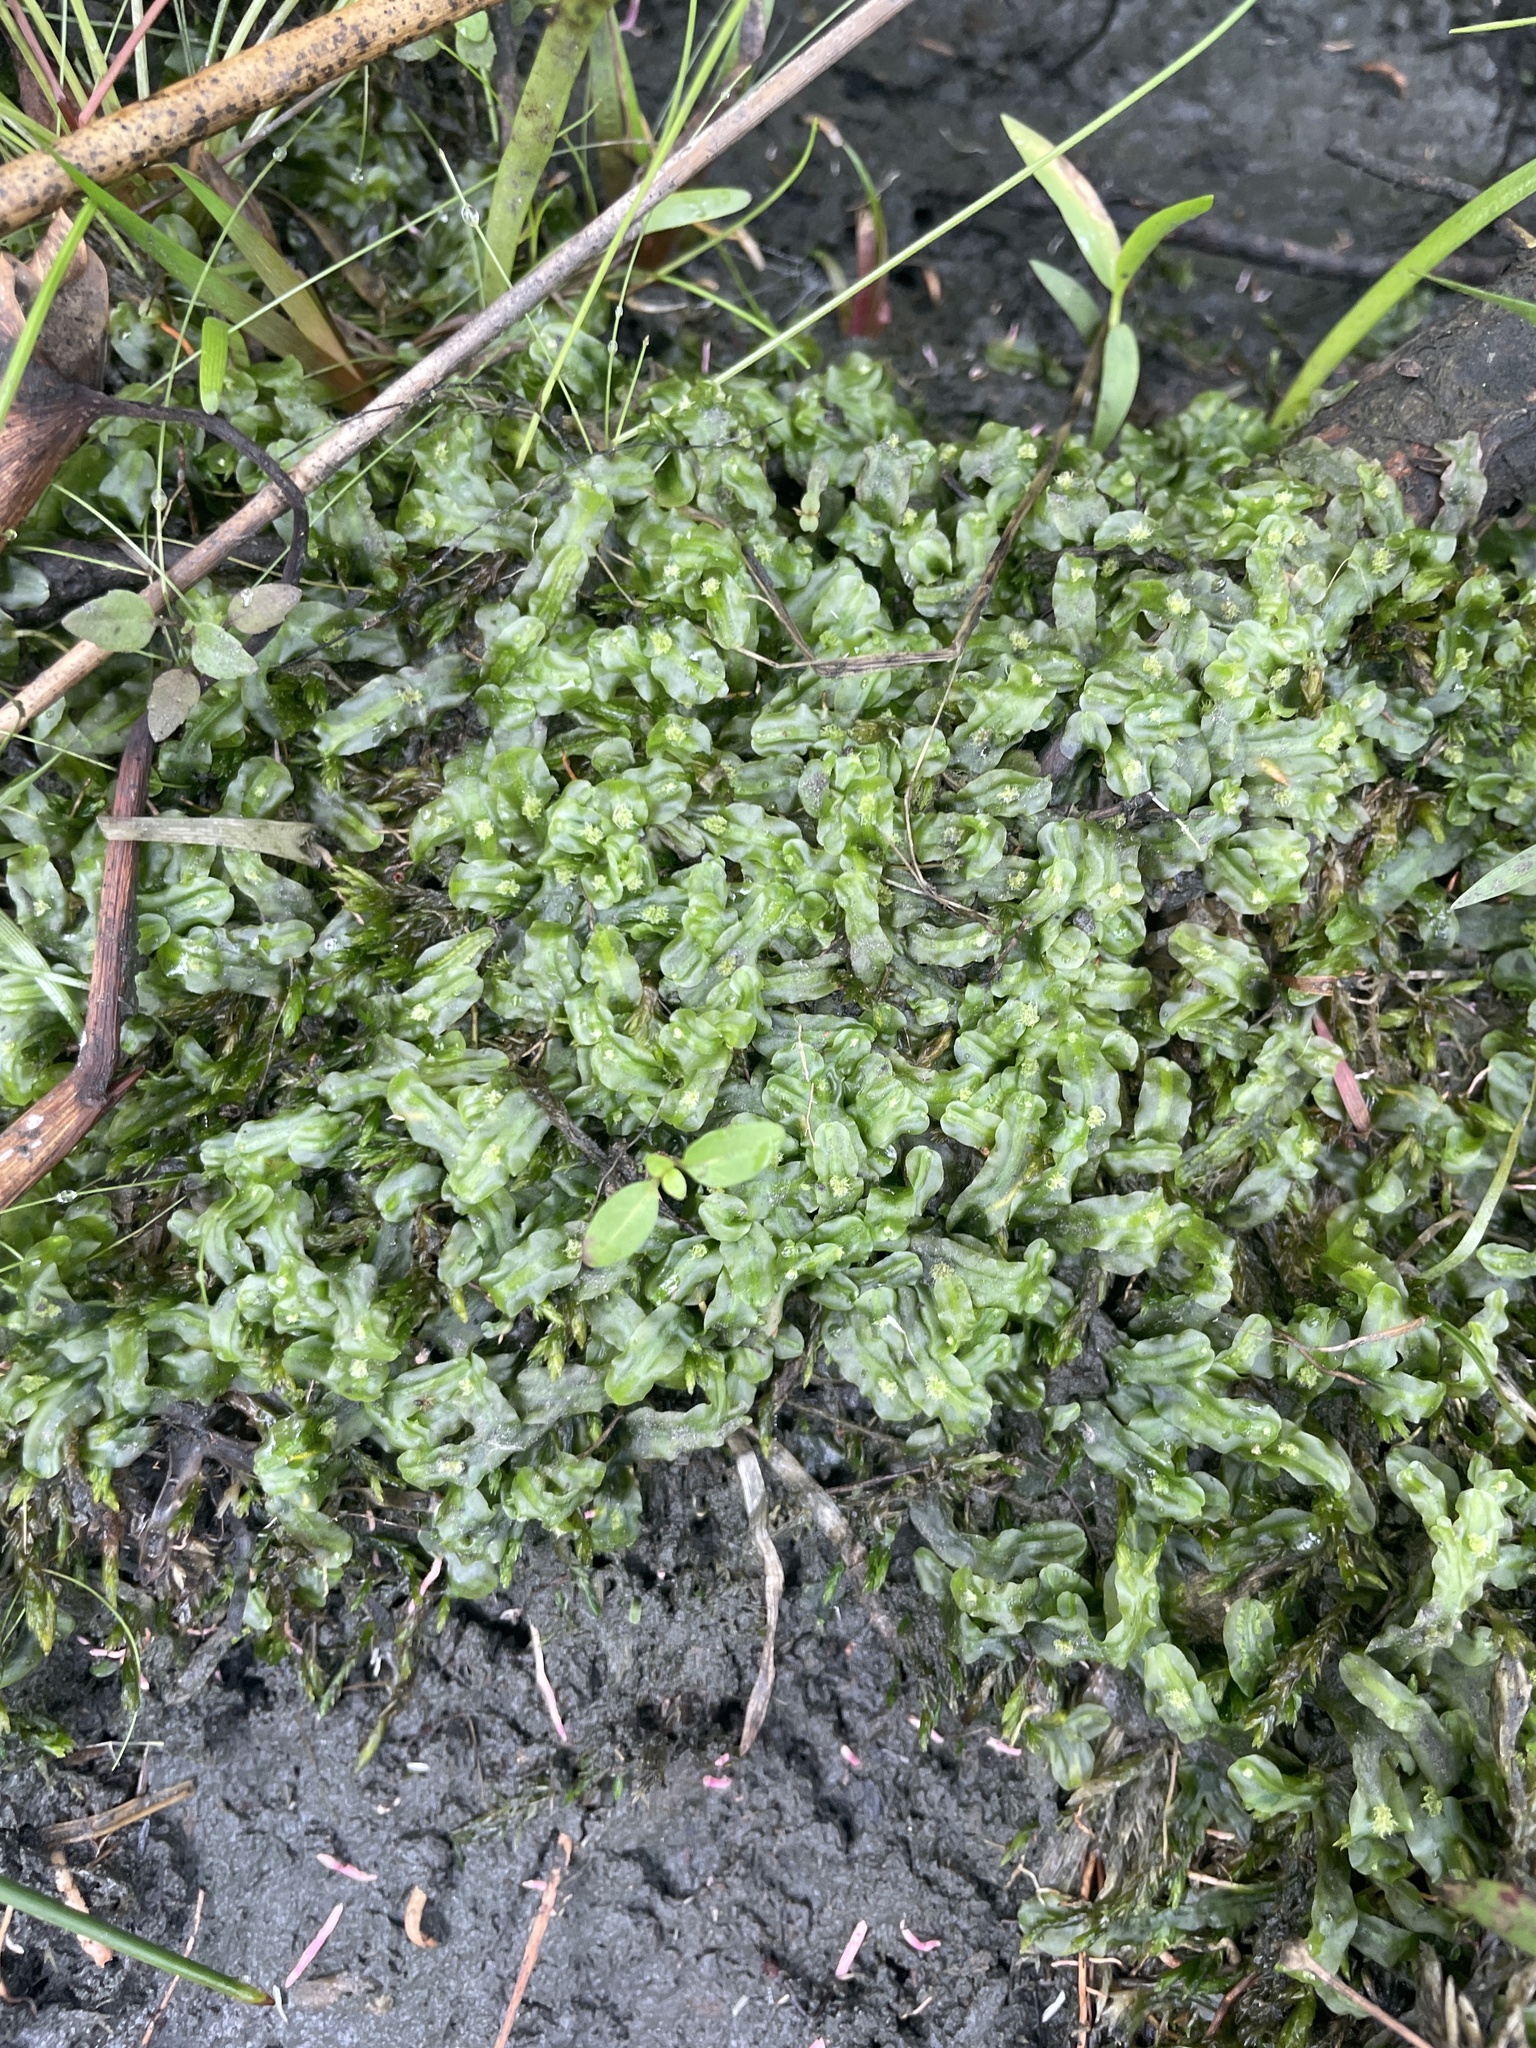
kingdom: Plantae
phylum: Marchantiophyta
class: Jungermanniopsida
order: Pallaviciniales
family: Pallaviciniaceae
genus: Pallavicinia
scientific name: Pallavicinia lyellii
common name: Veilwort
